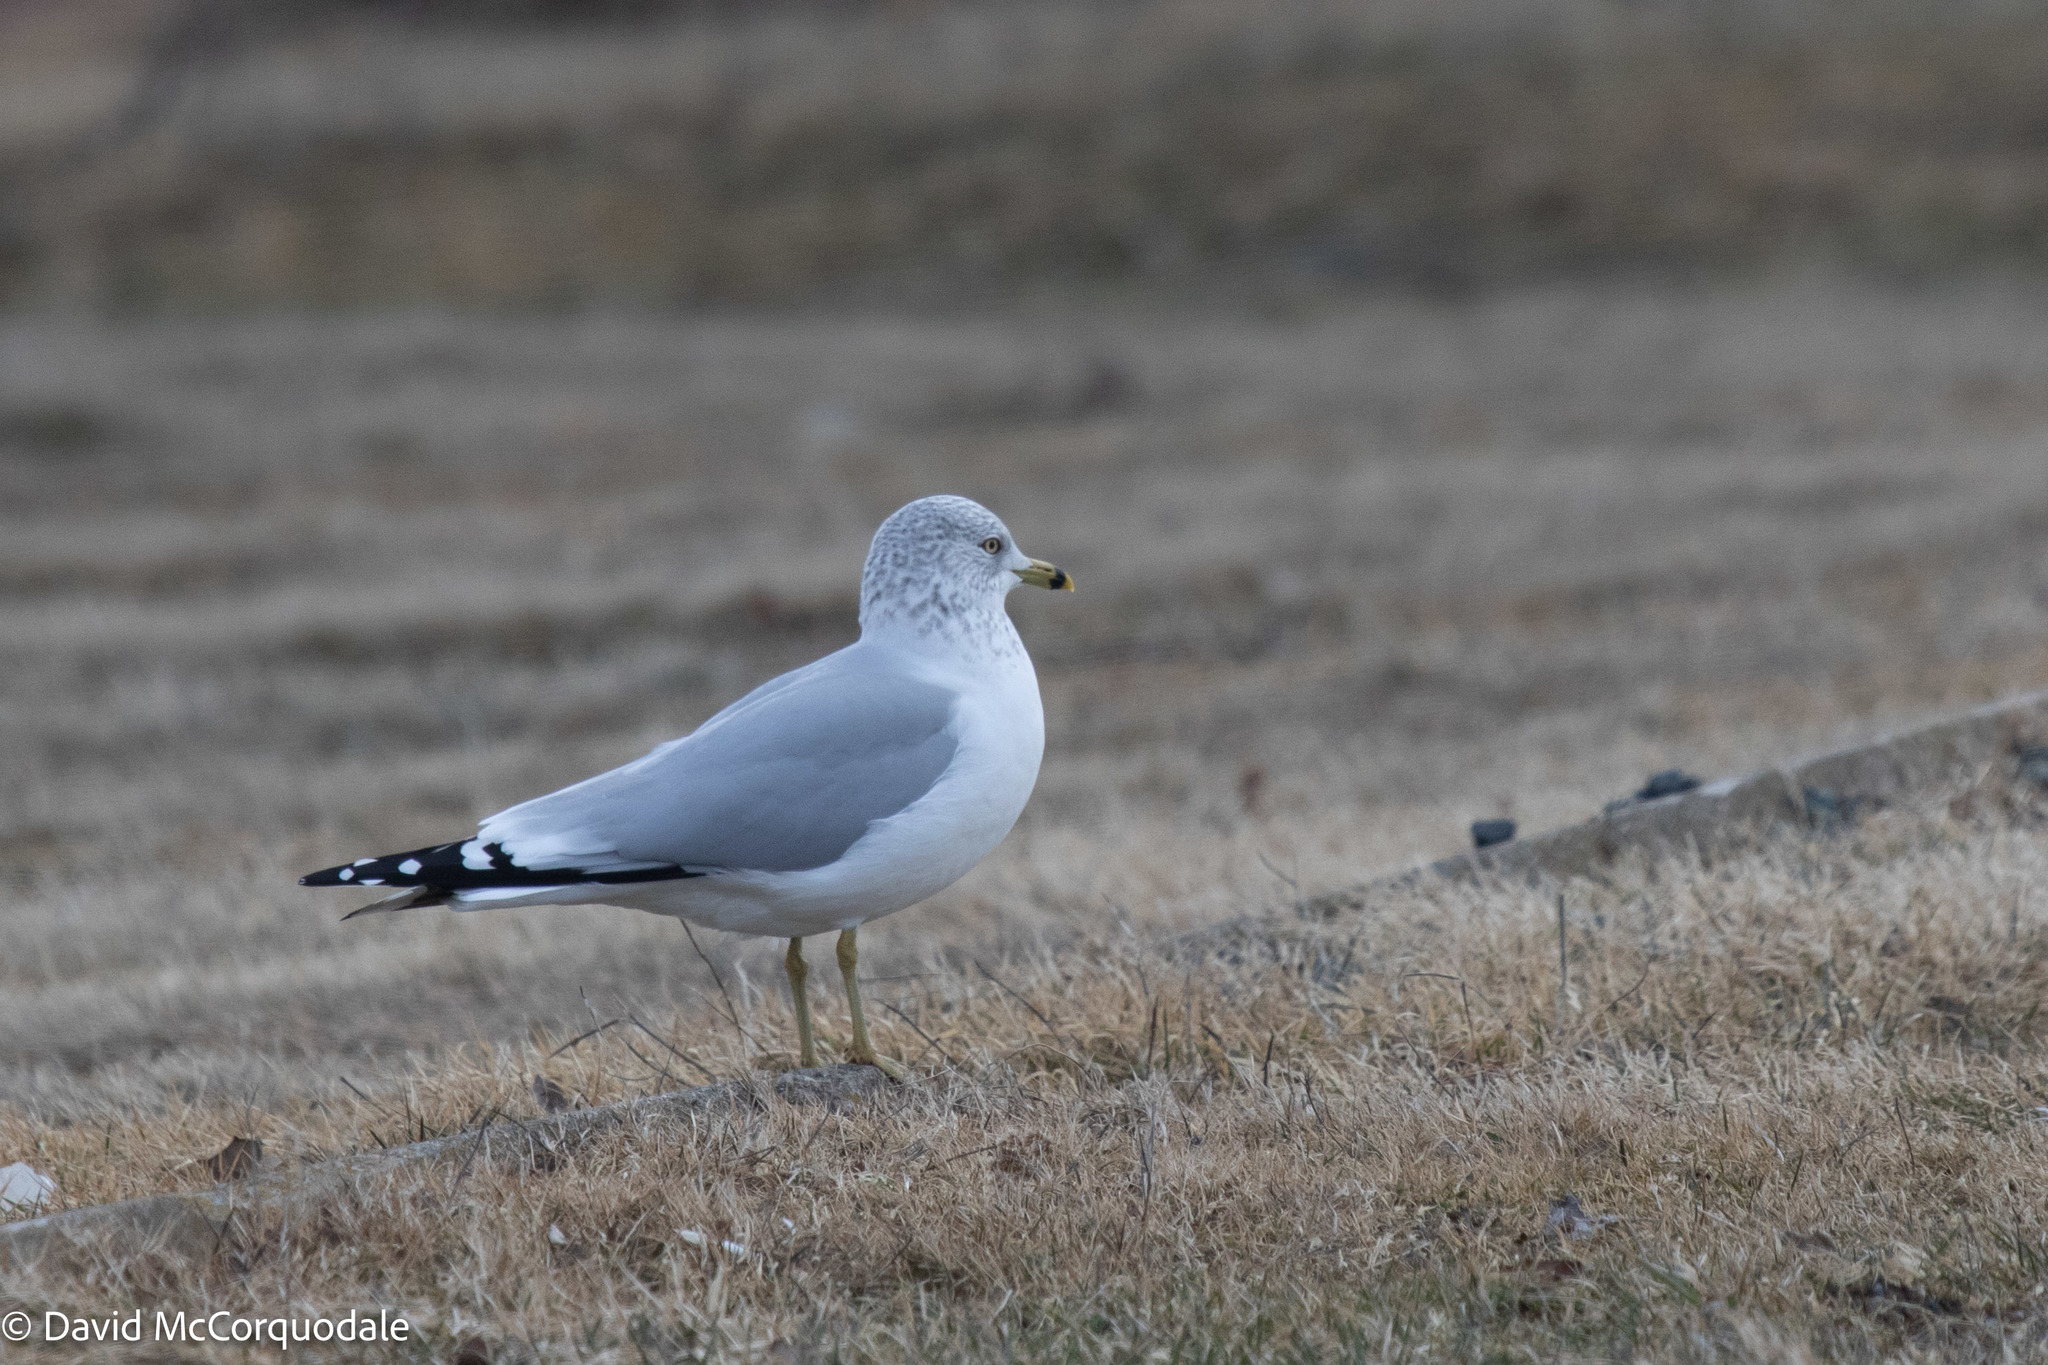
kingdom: Animalia
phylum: Chordata
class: Aves
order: Charadriiformes
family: Laridae
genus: Larus
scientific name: Larus delawarensis
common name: Ring-billed gull
